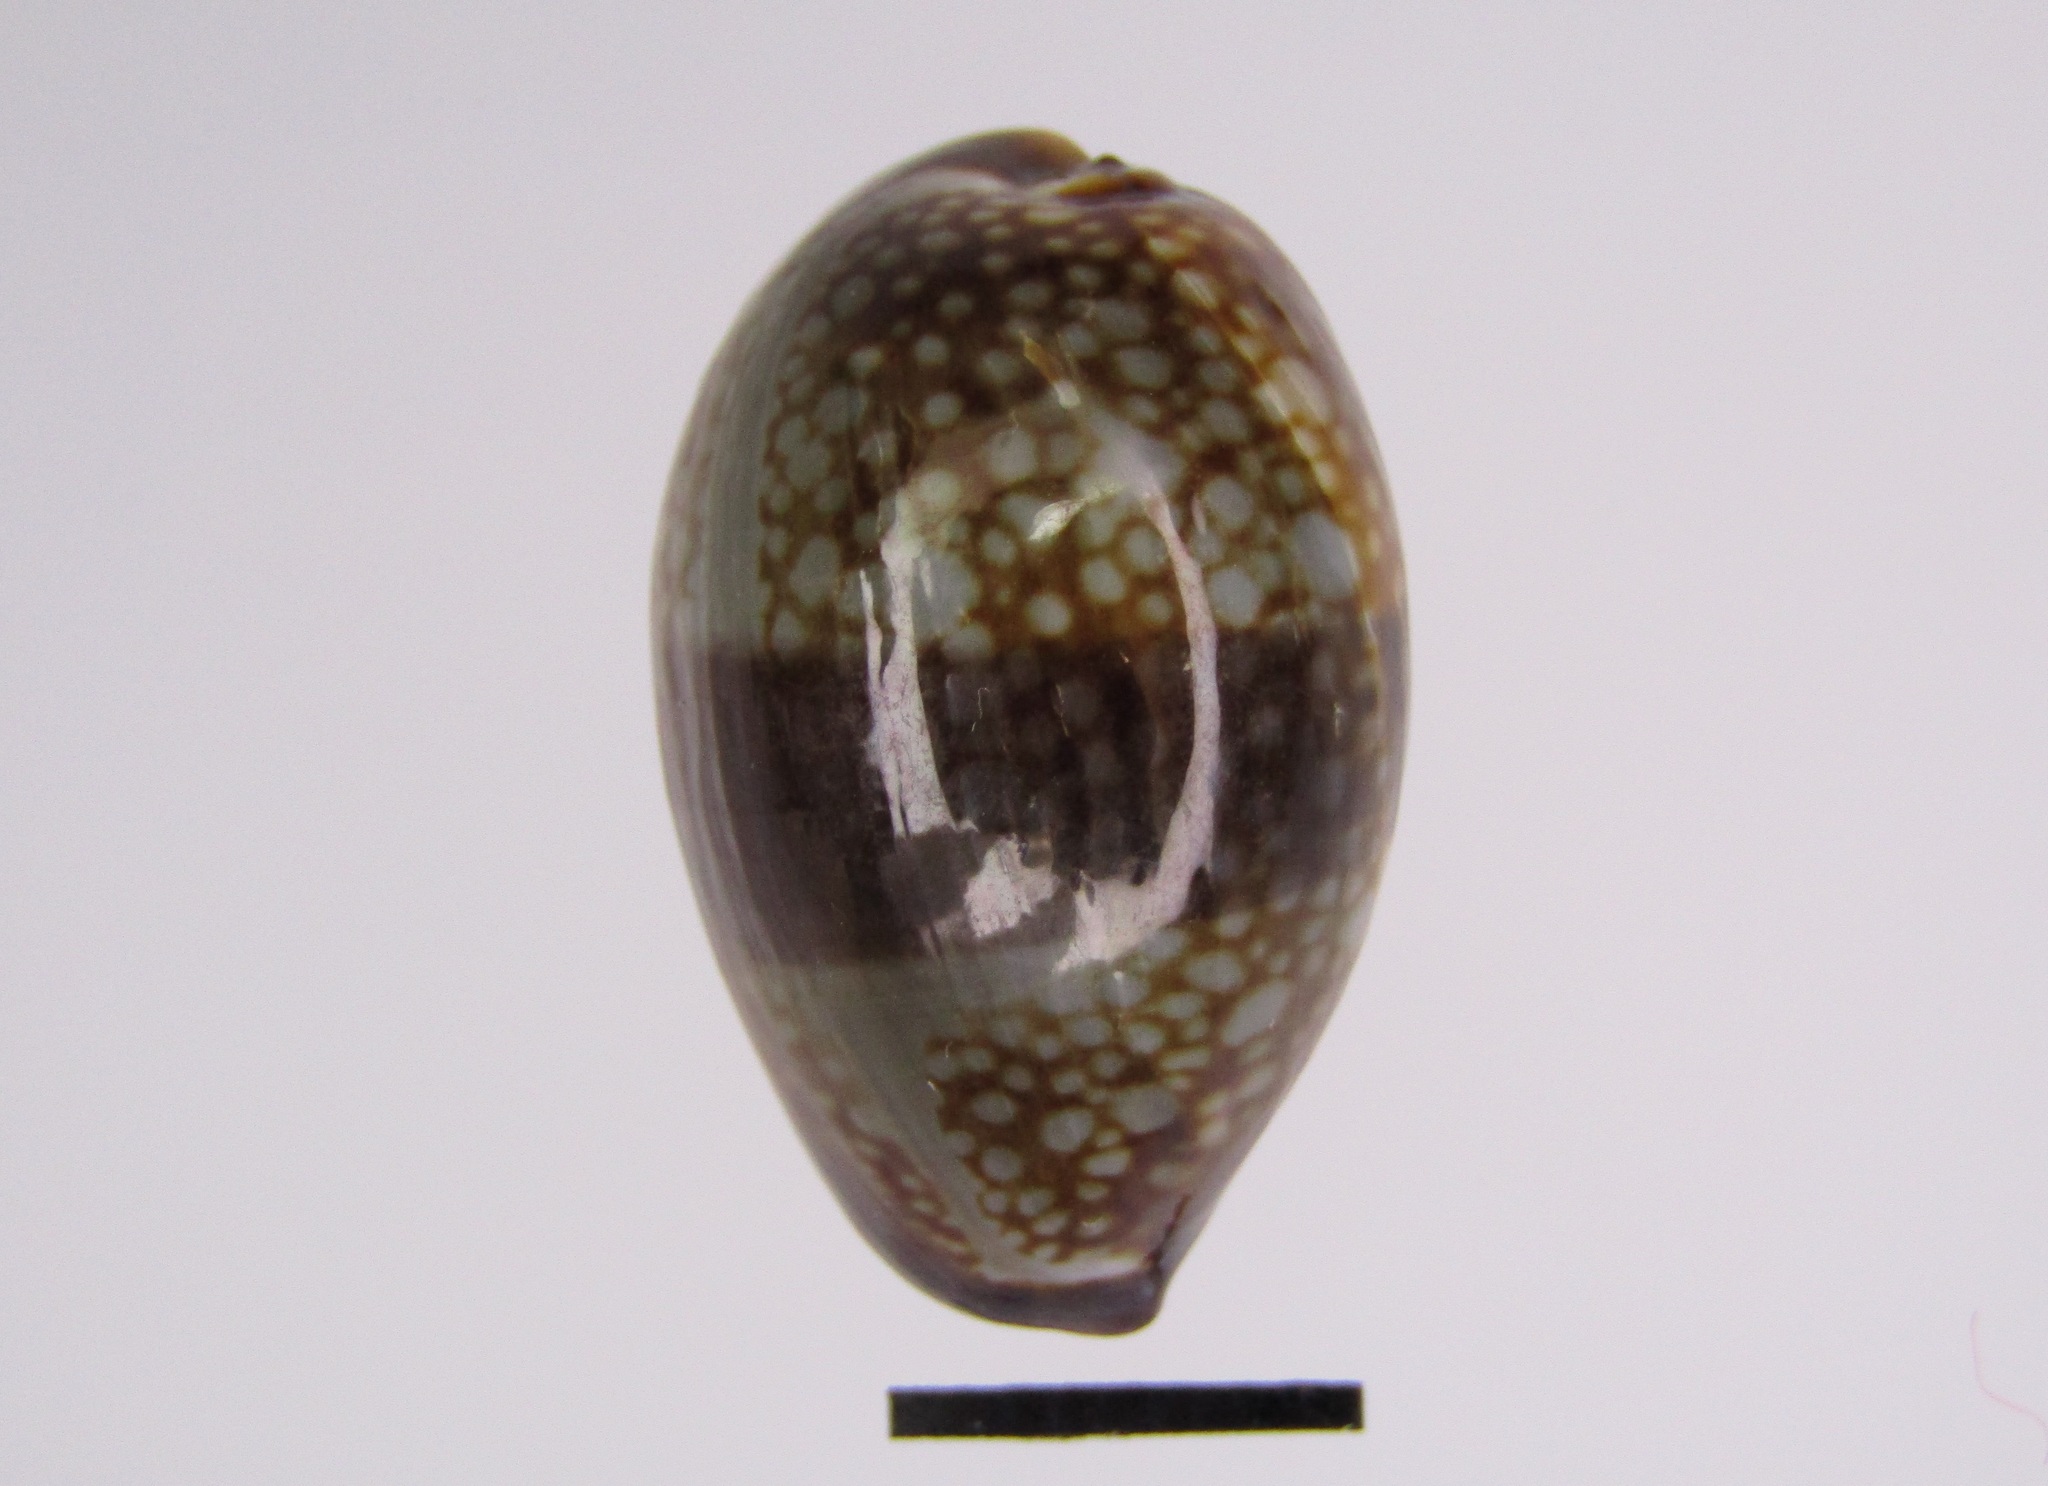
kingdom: Animalia
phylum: Mollusca
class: Gastropoda
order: Littorinimorpha
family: Cypraeidae
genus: Monetaria
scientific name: Monetaria caputserpentis
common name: Serpent's head cowrie
